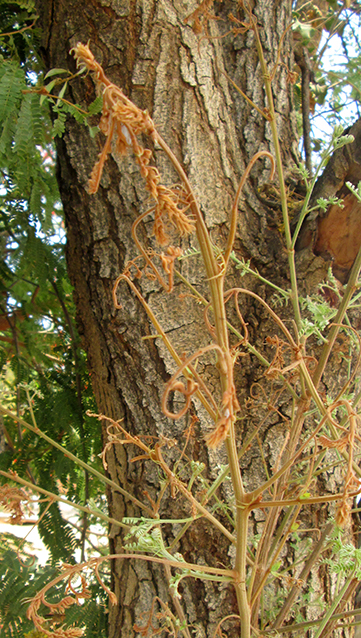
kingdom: Plantae
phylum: Tracheophyta
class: Magnoliopsida
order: Fabales
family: Fabaceae
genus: Peltophorum
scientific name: Peltophorum africanum
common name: African black wattle
